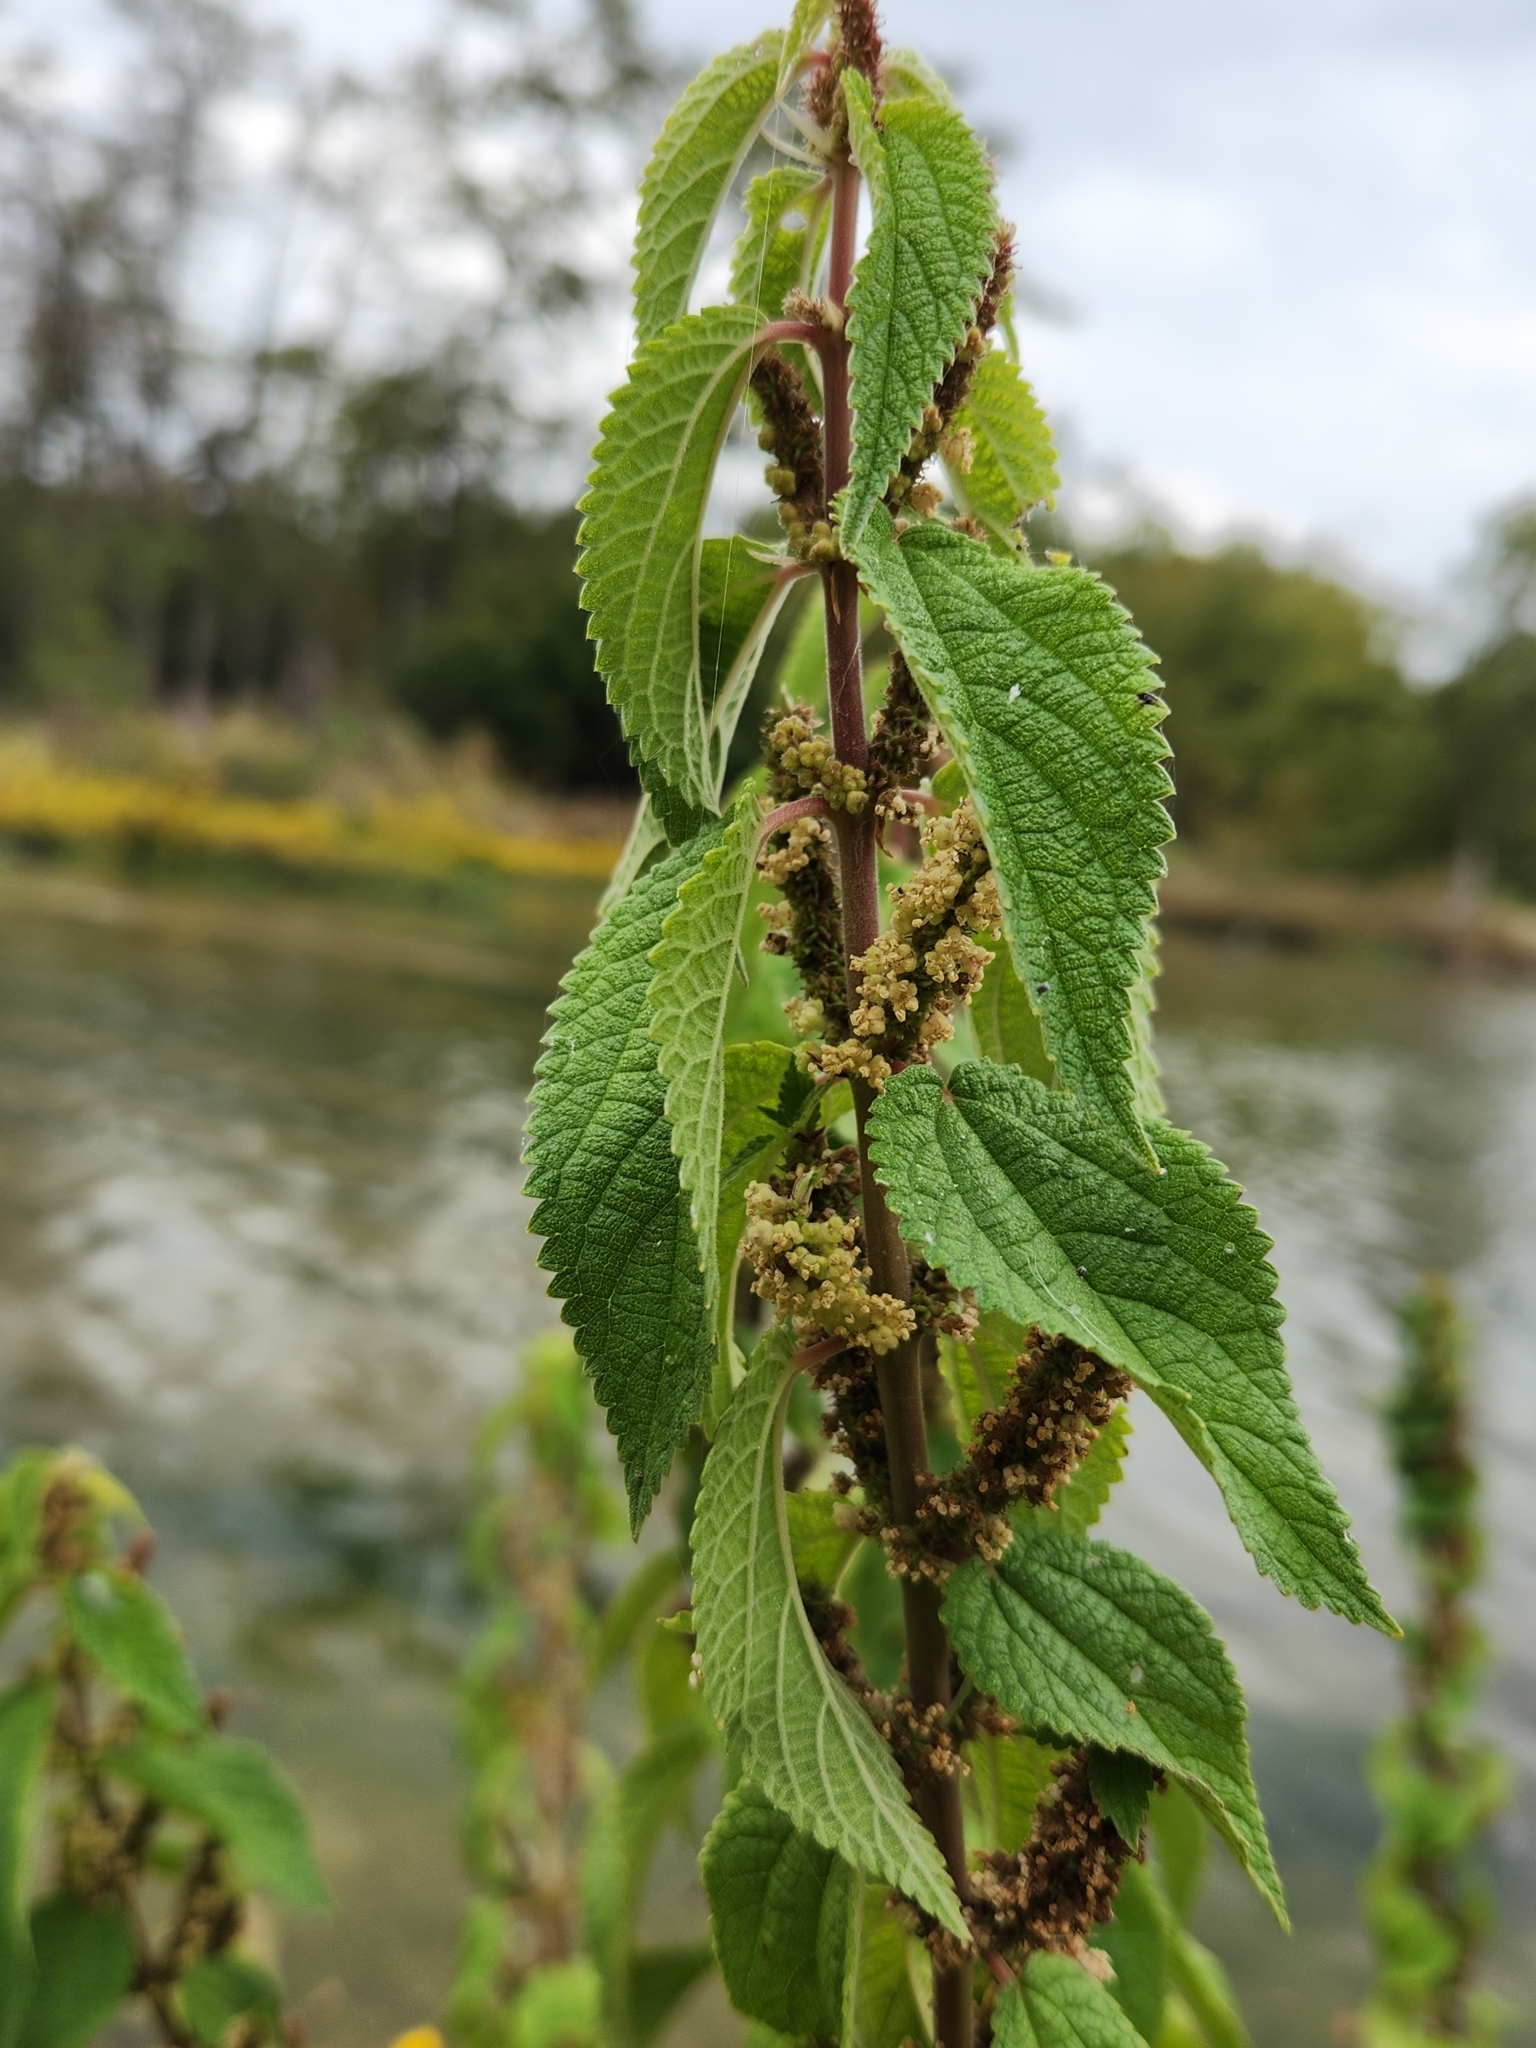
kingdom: Plantae
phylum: Tracheophyta
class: Magnoliopsida
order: Rosales
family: Urticaceae
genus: Boehmeria
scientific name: Boehmeria cylindrica
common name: Bog-hemp
